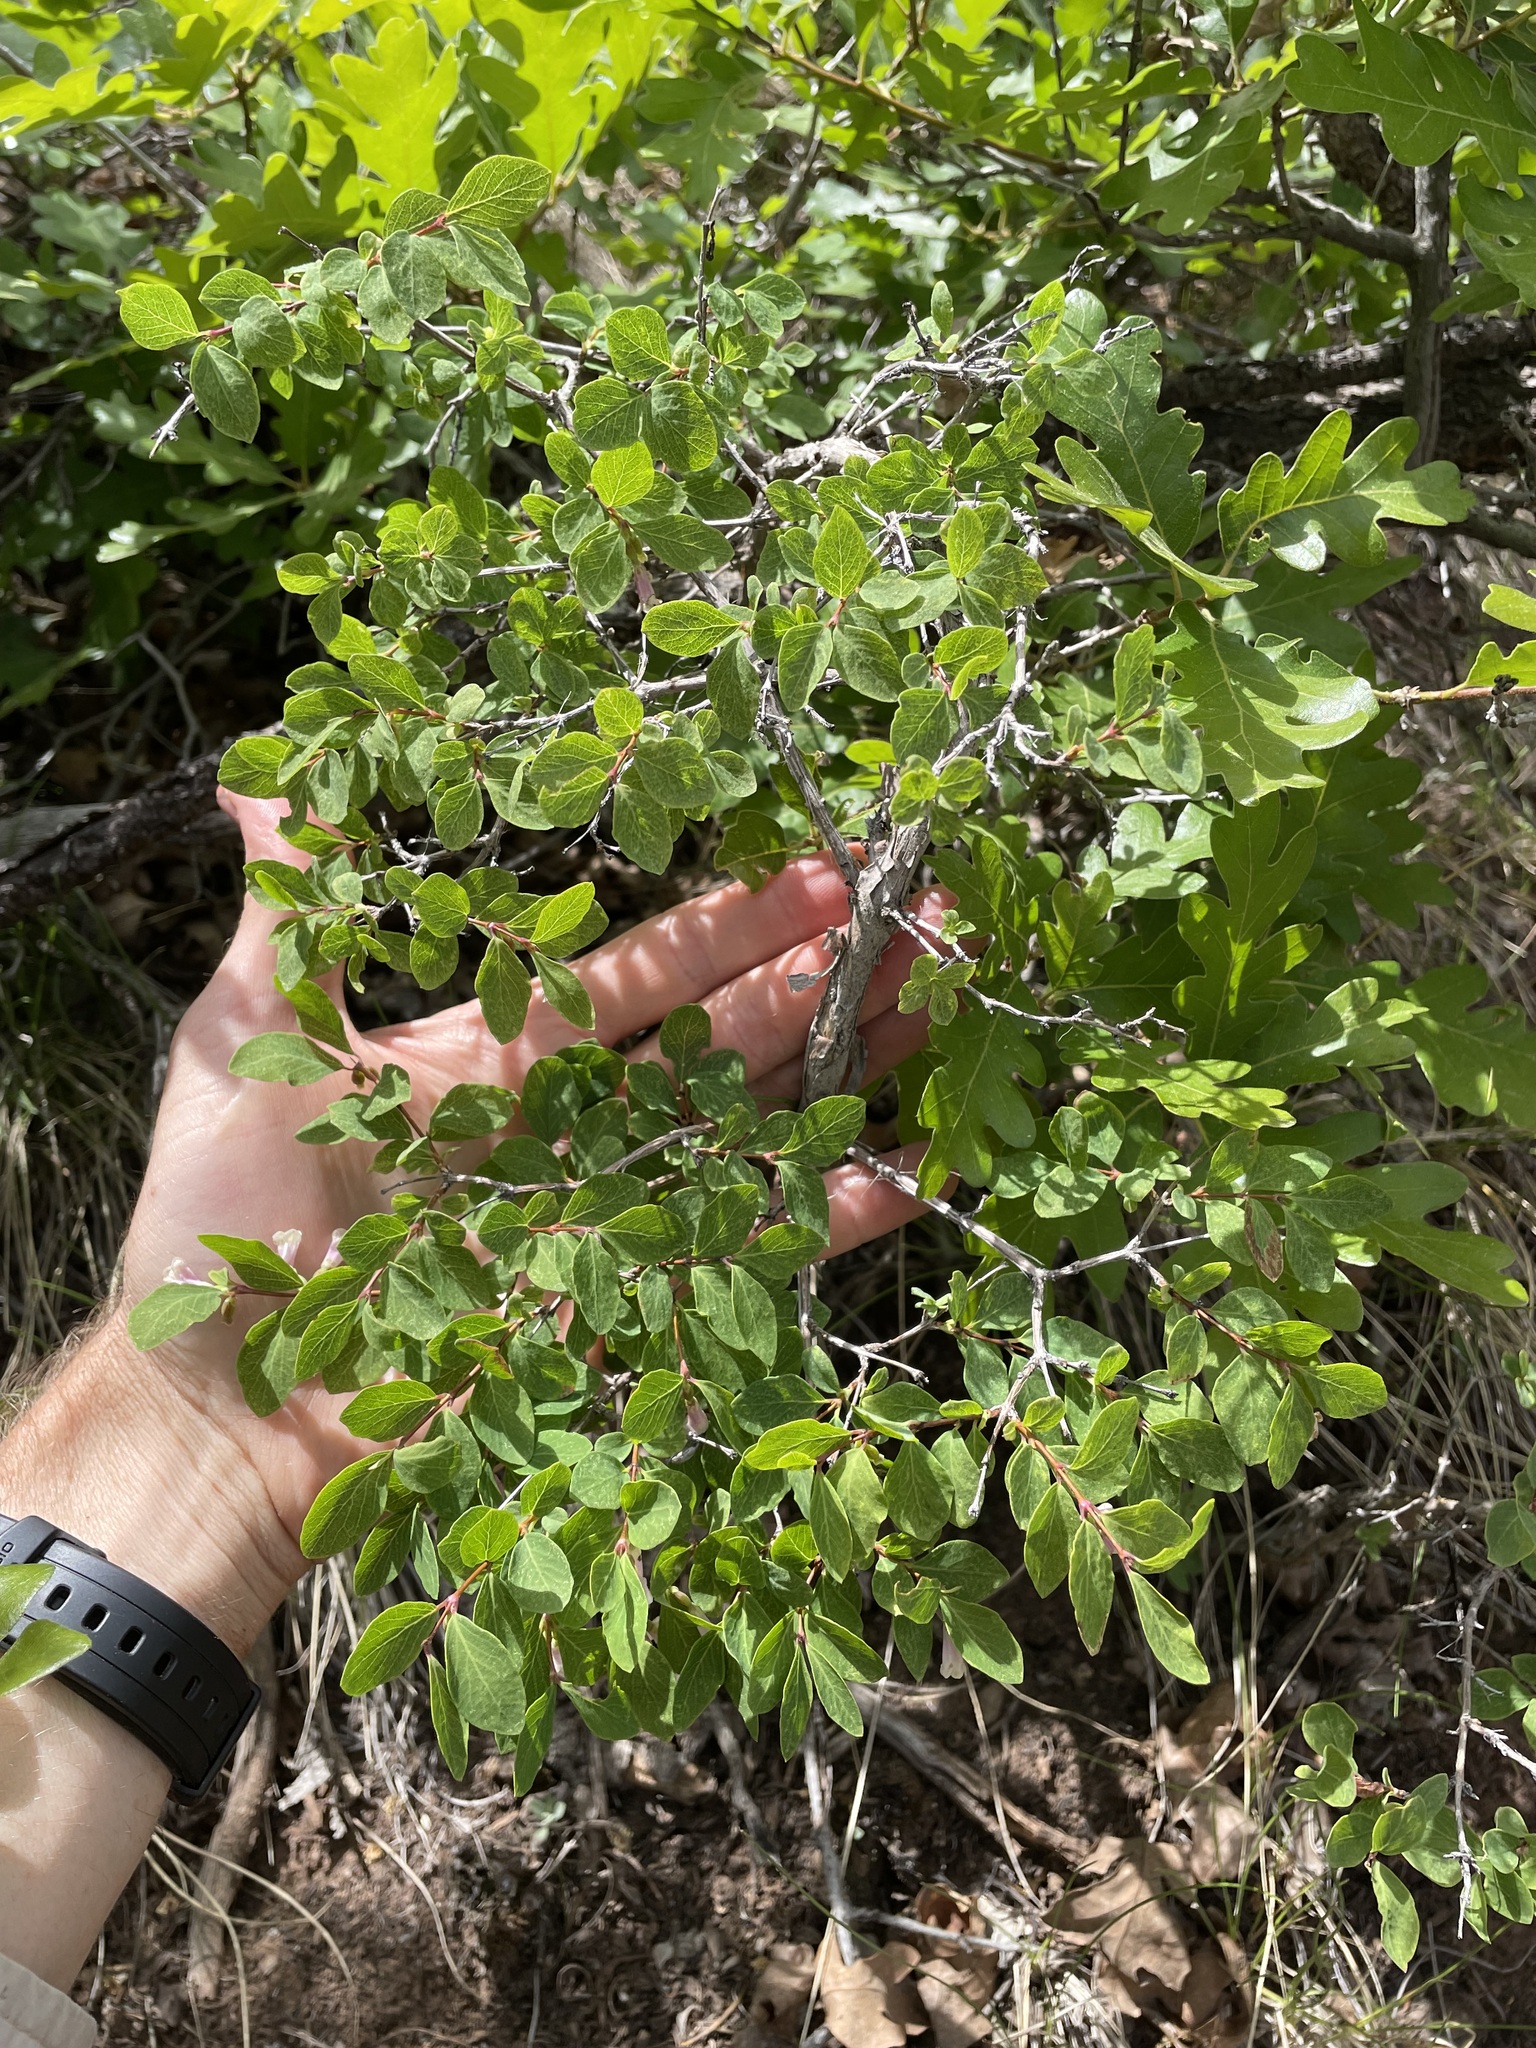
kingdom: Plantae
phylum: Tracheophyta
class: Magnoliopsida
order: Dipsacales
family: Caprifoliaceae
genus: Symphoricarpos
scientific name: Symphoricarpos rotundifolius
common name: Round-leaved snowberry
